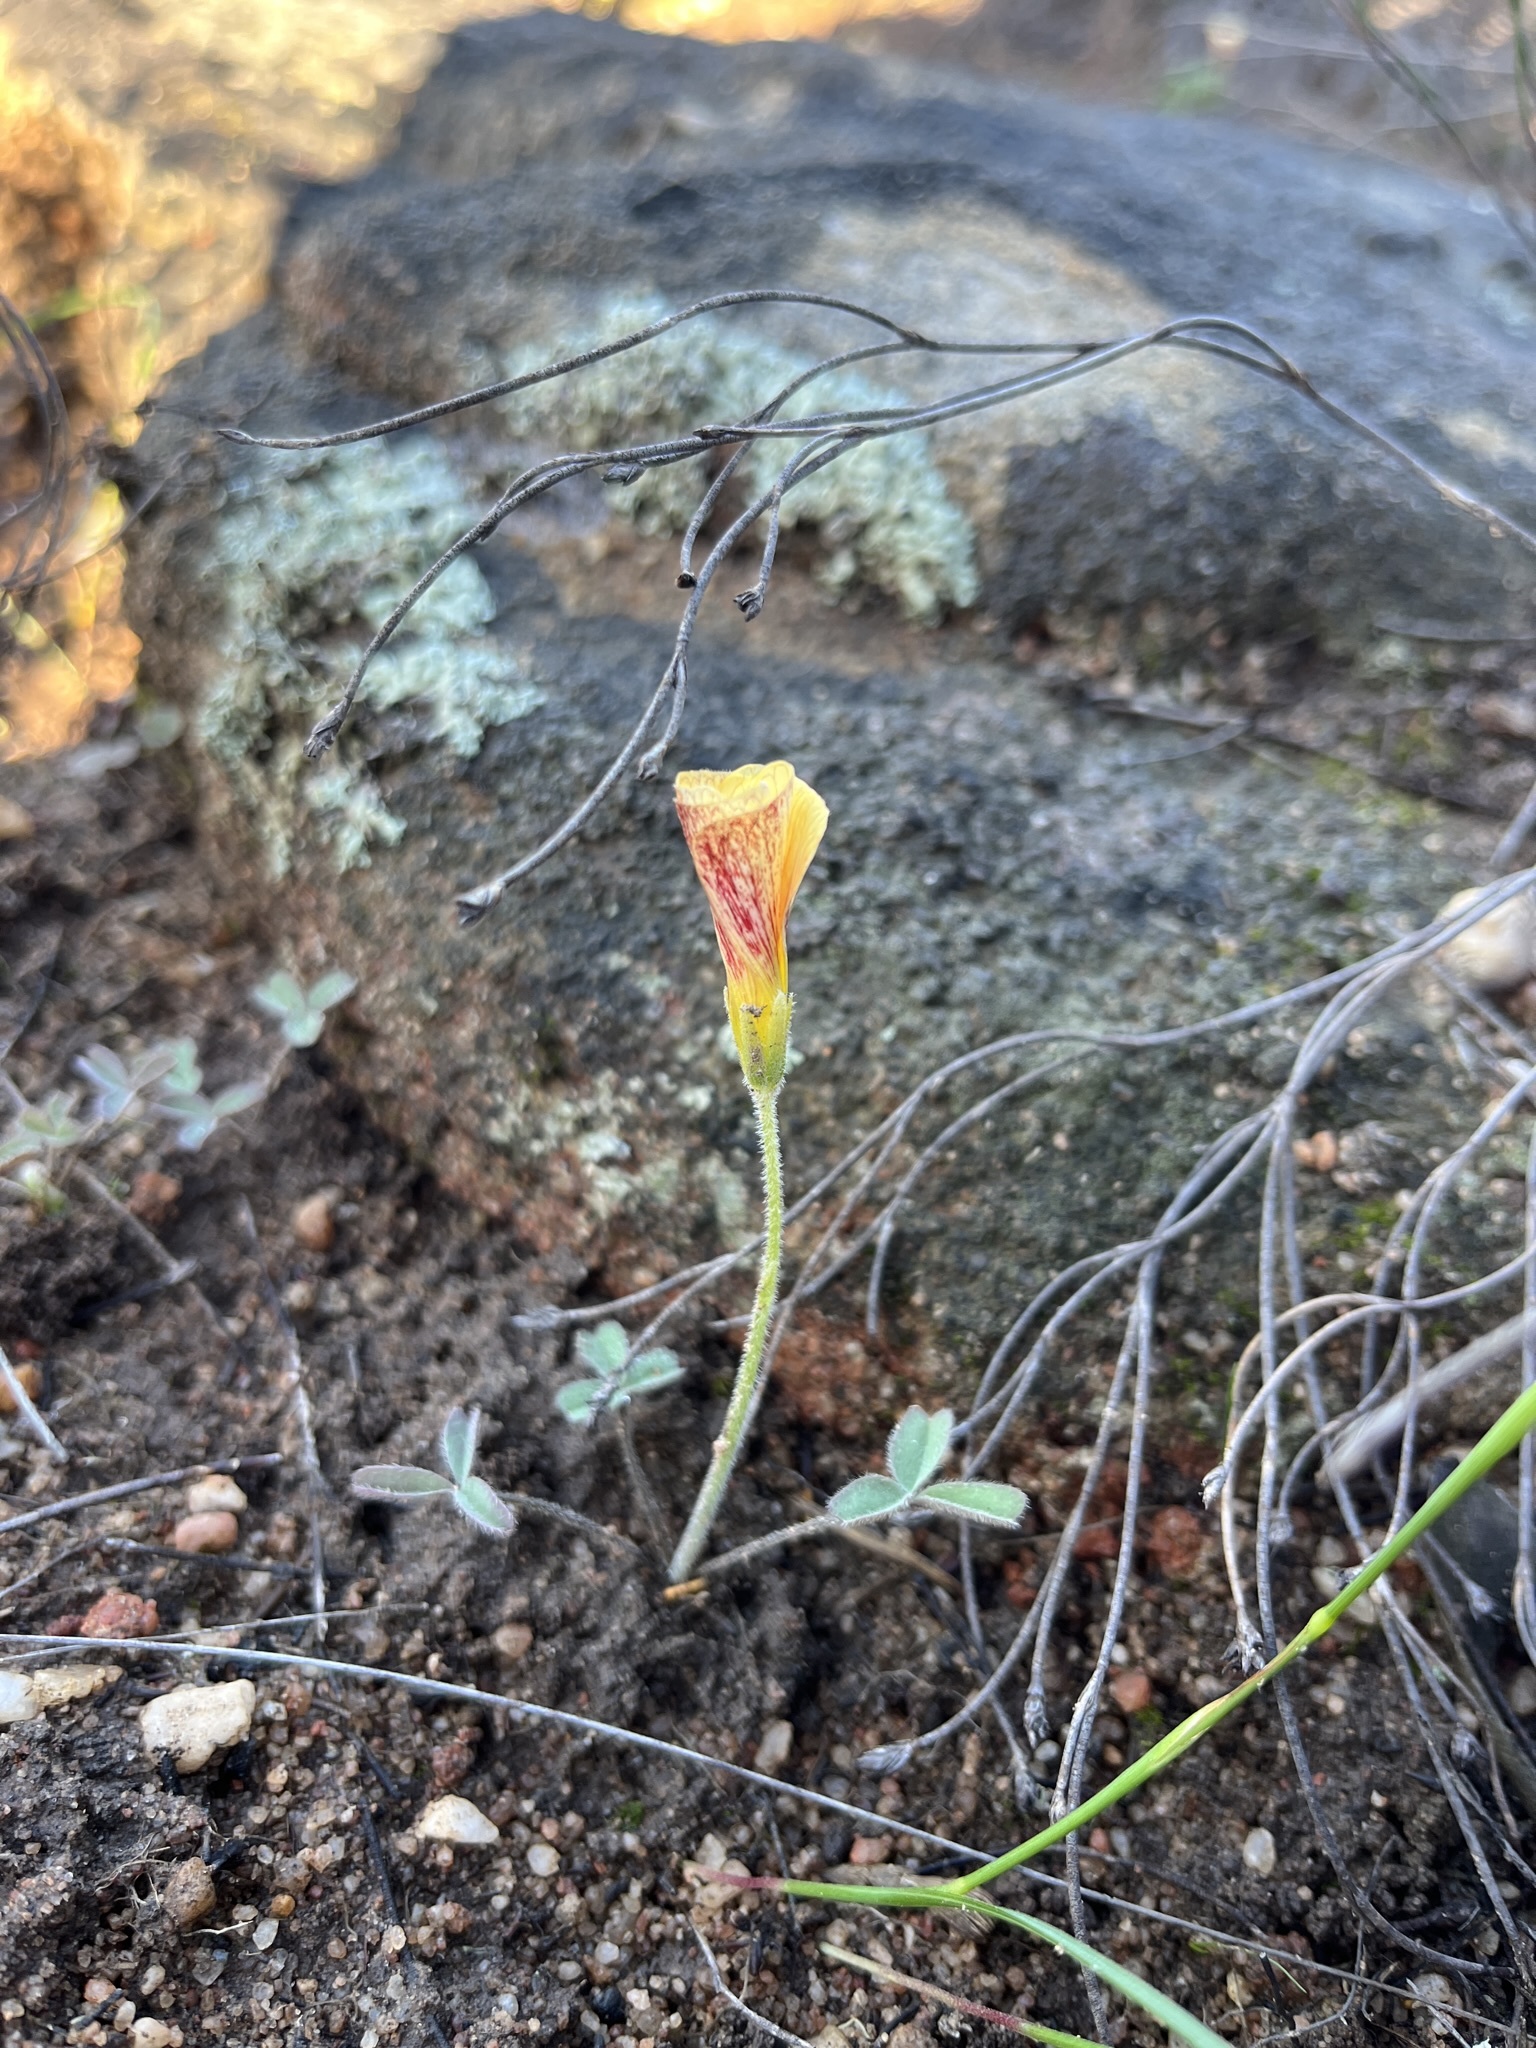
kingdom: Plantae
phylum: Tracheophyta
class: Magnoliopsida
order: Oxalidales
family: Oxalidaceae
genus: Oxalis
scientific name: Oxalis obtusa
